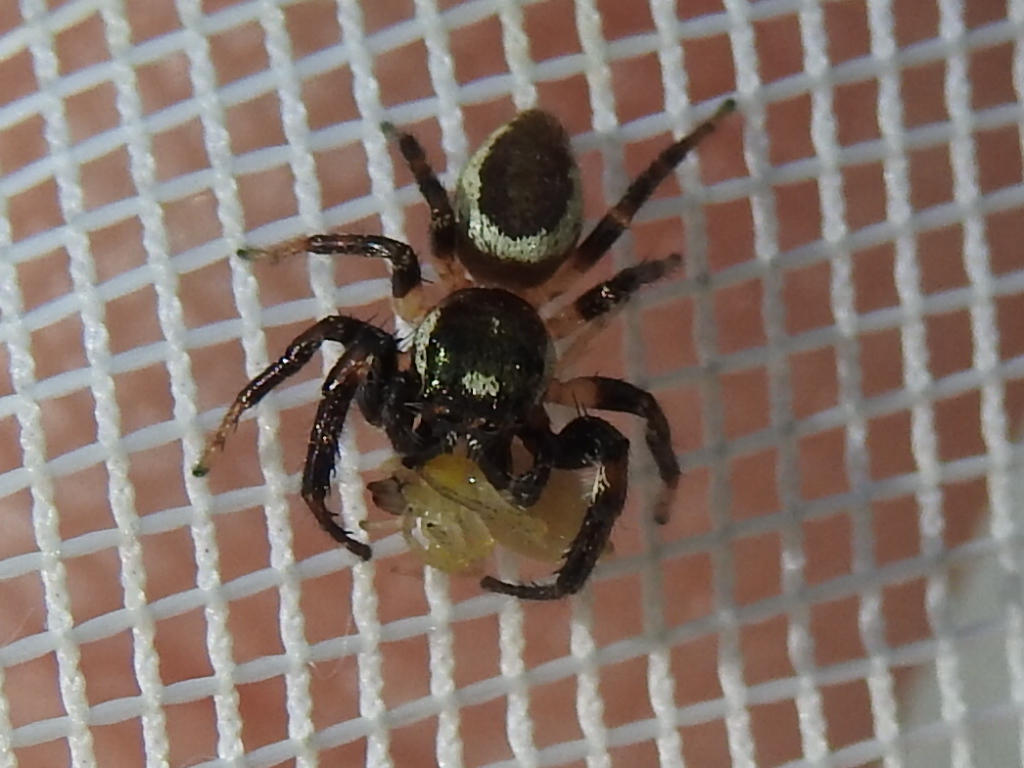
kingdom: Animalia
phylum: Arthropoda
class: Arachnida
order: Araneae
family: Salticidae
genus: Eris
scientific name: Eris militaris
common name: Bronze jumper
